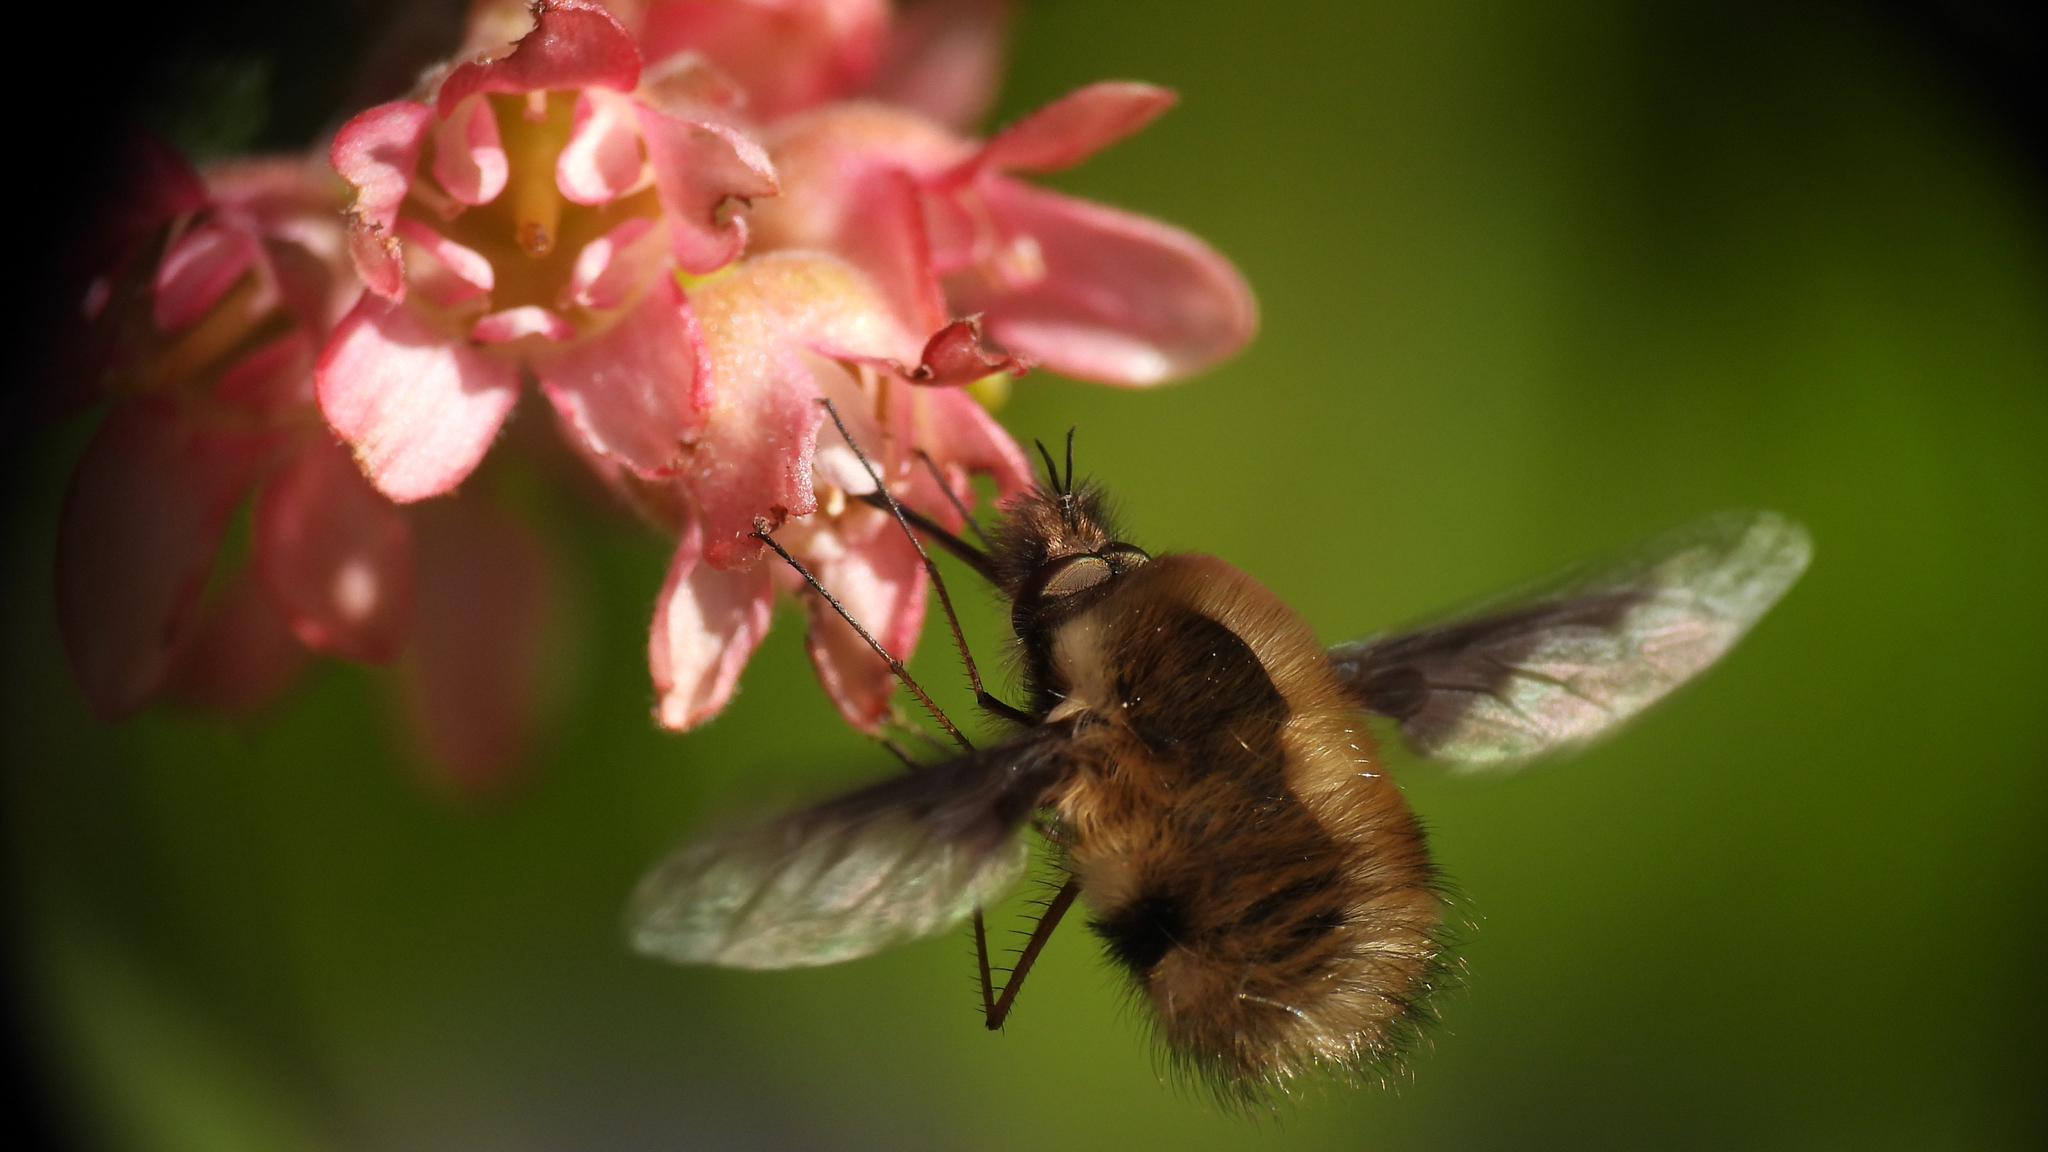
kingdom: Animalia
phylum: Arthropoda
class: Insecta
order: Diptera
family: Bombyliidae
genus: Bombylius
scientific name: Bombylius major
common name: Bee fly
